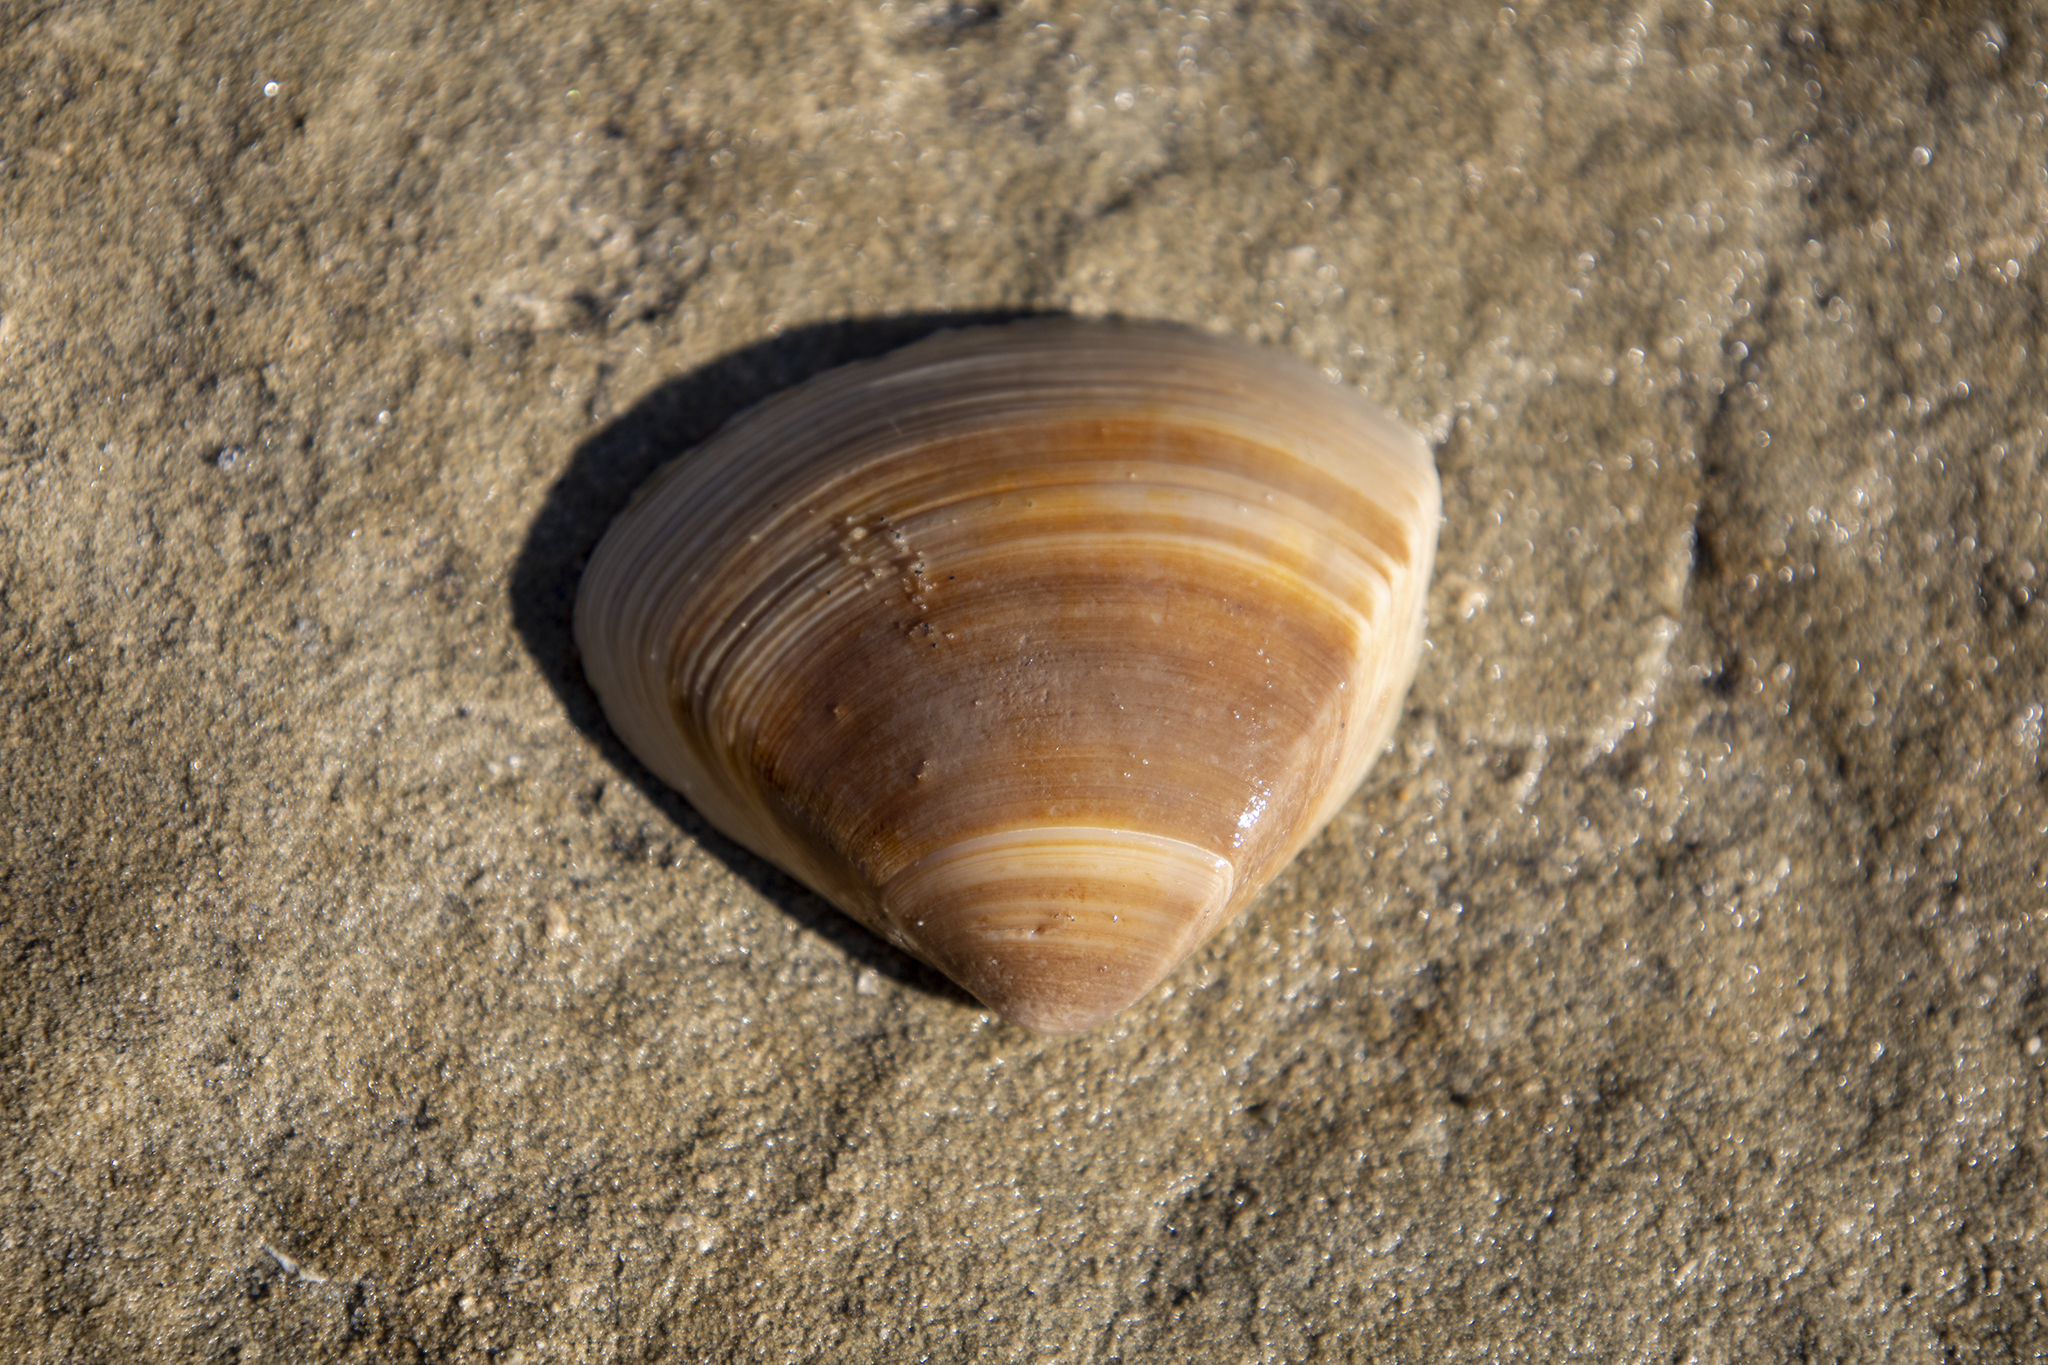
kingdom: Animalia
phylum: Mollusca
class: Bivalvia
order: Venerida
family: Mactridae
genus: Crassula
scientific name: Crassula aequilatera
